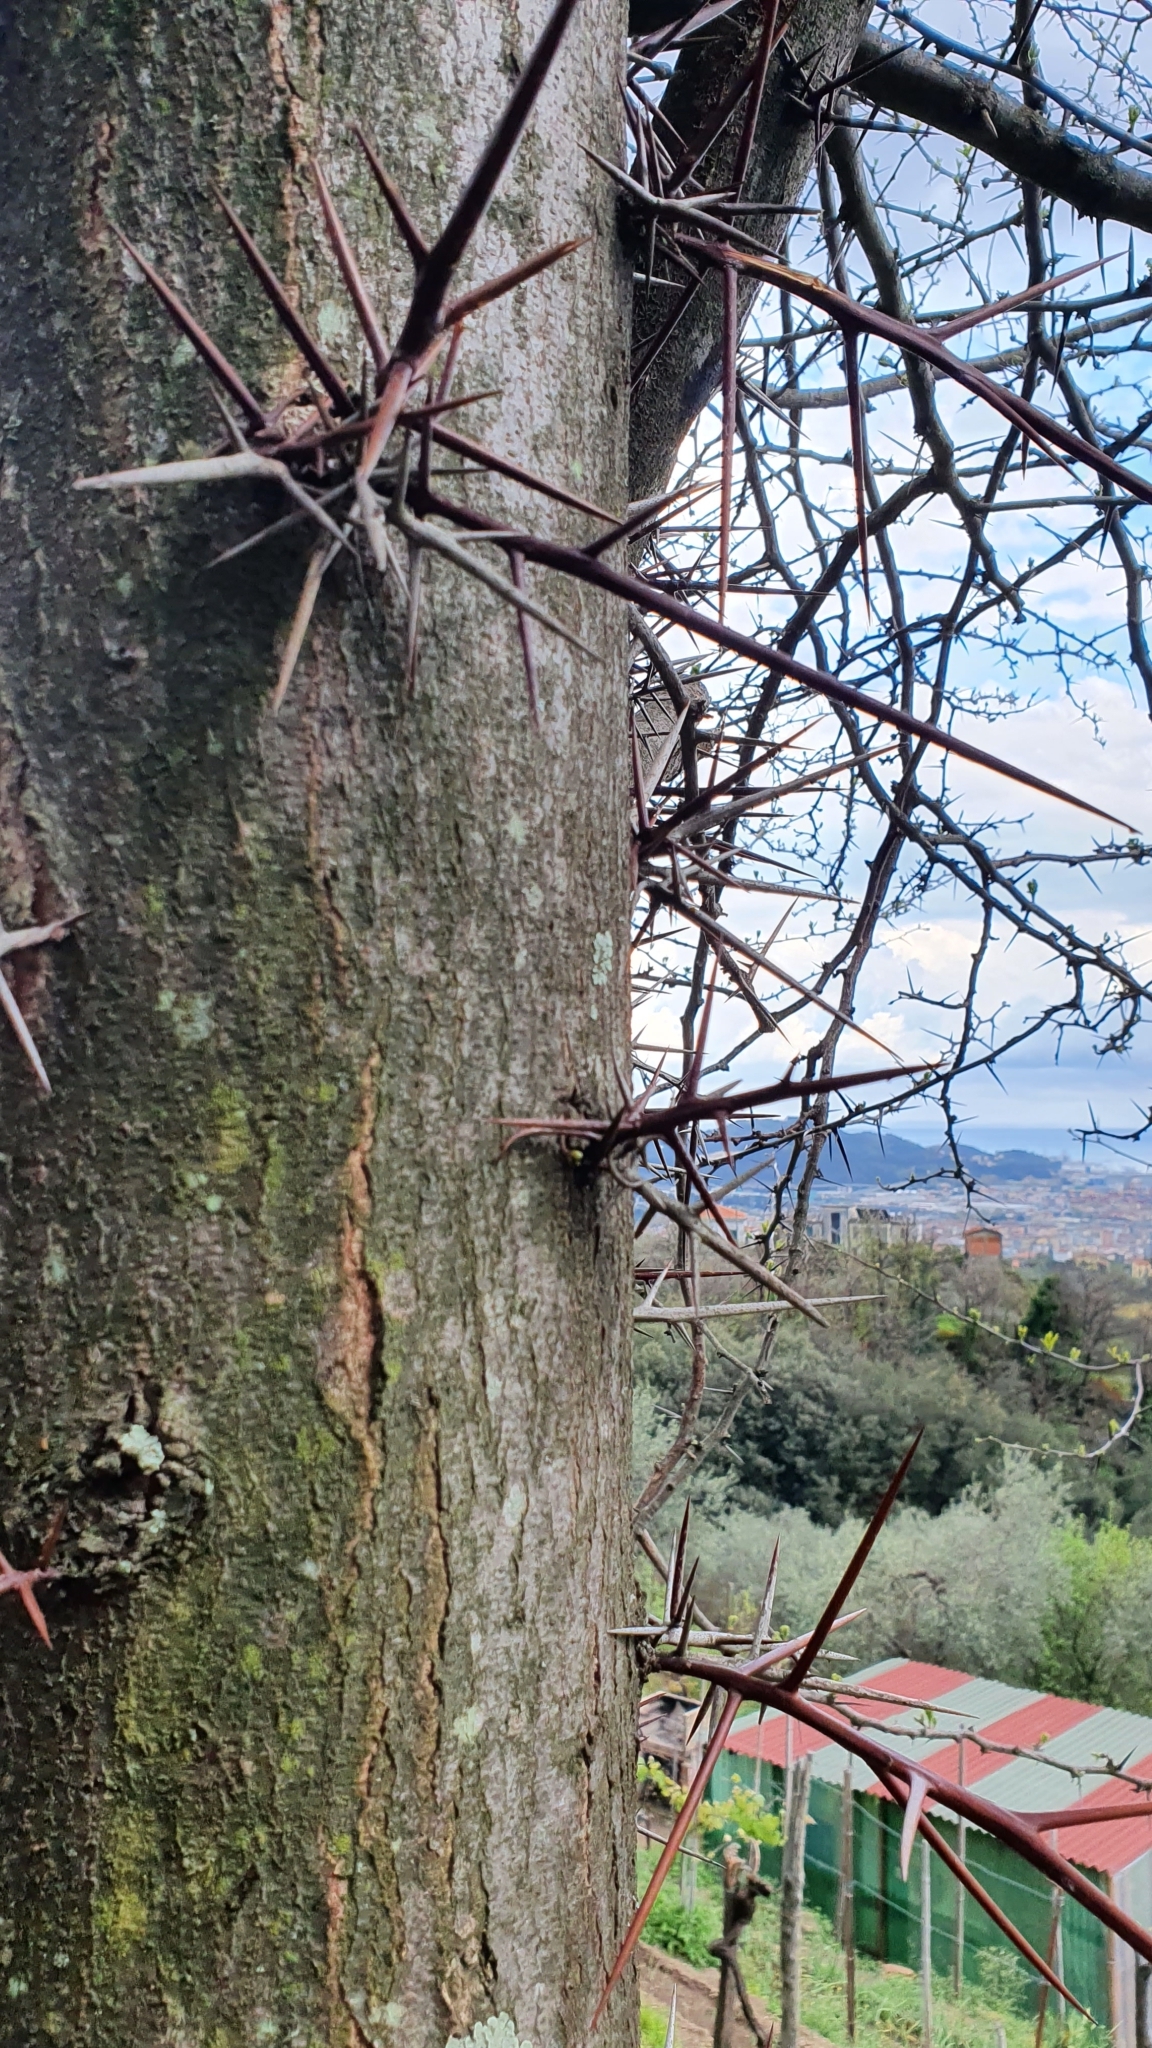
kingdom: Plantae
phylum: Tracheophyta
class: Magnoliopsida
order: Fabales
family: Fabaceae
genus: Gleditsia
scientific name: Gleditsia triacanthos
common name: Common honeylocust
